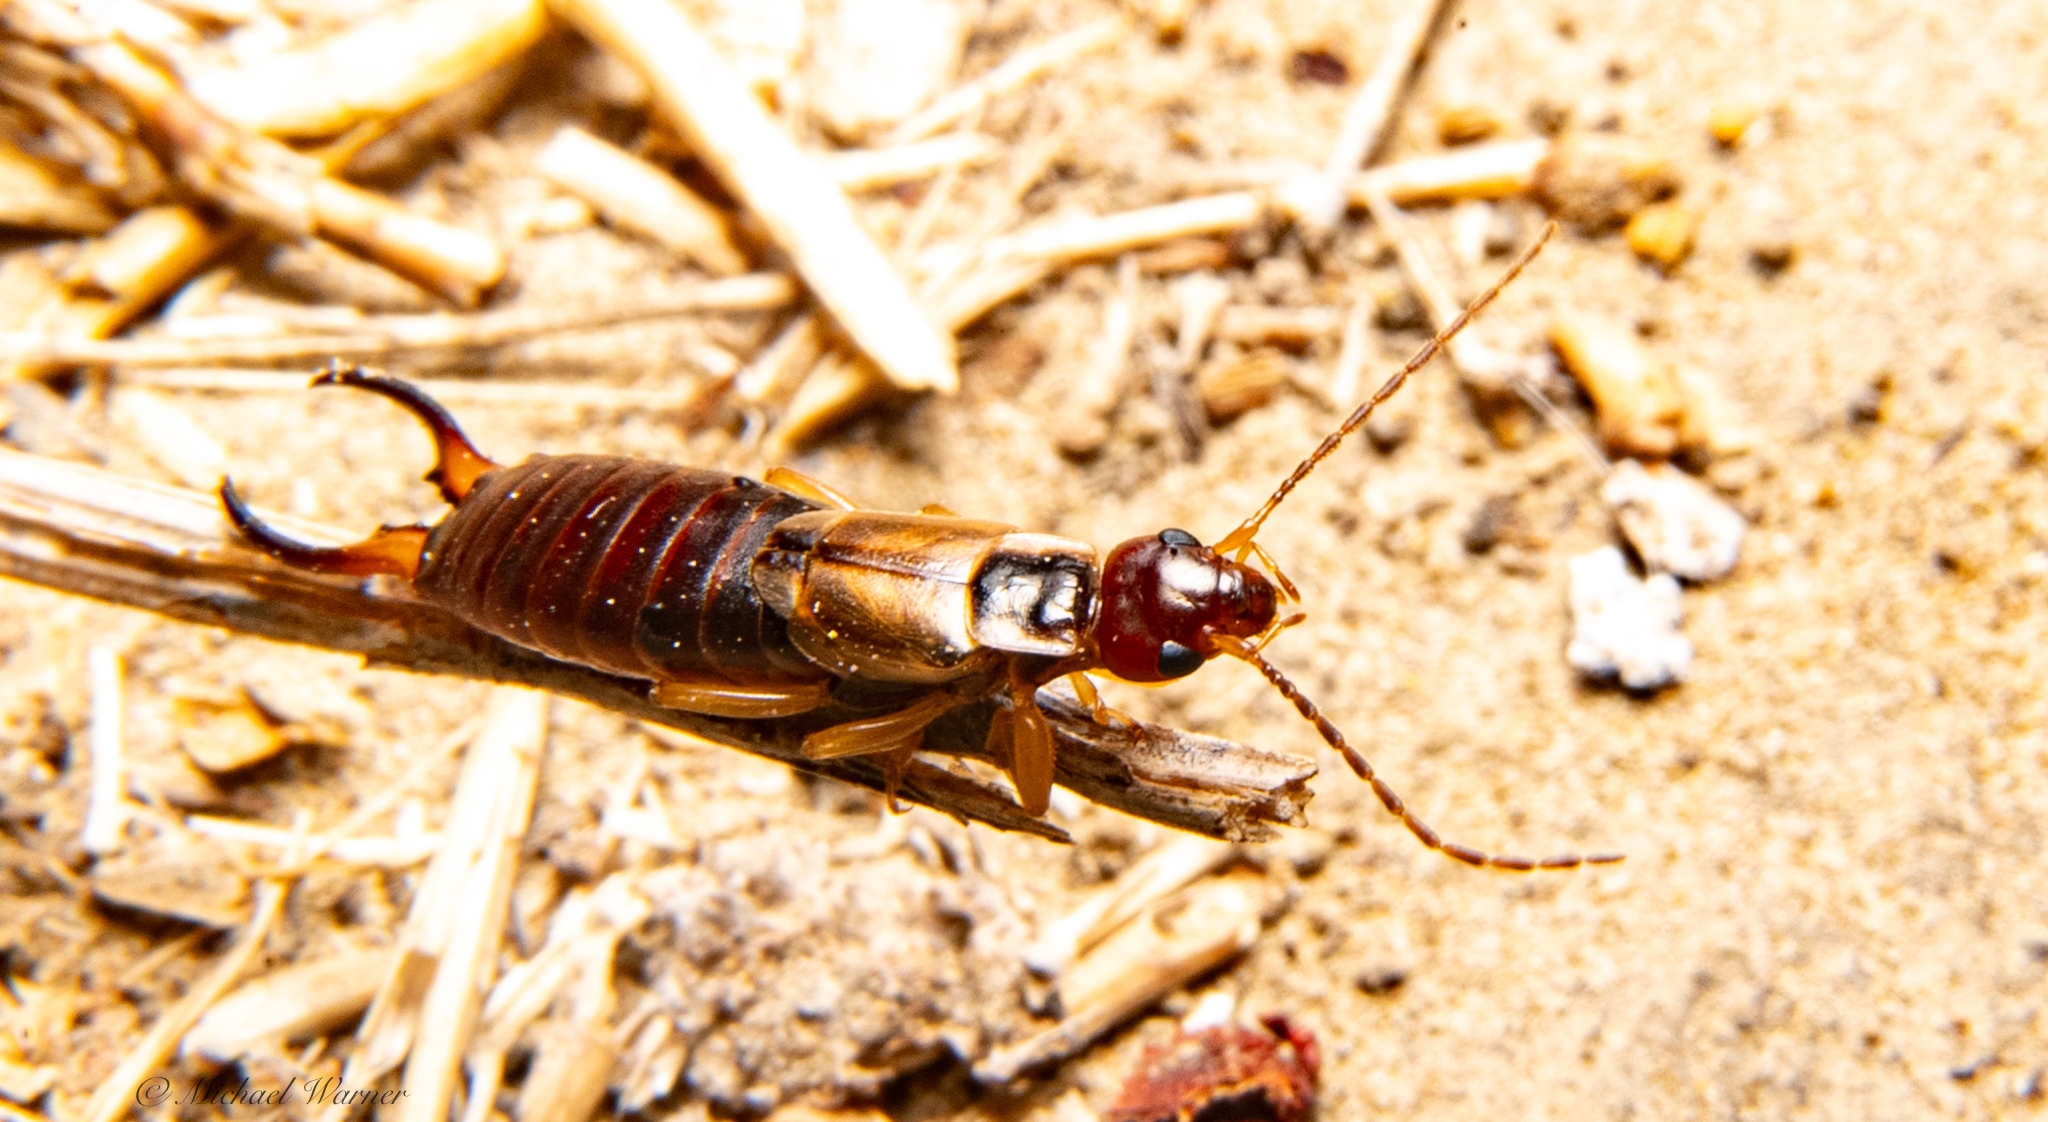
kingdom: Animalia
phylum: Arthropoda
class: Insecta
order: Dermaptera
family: Forficulidae
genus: Forficula
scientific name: Forficula dentata
